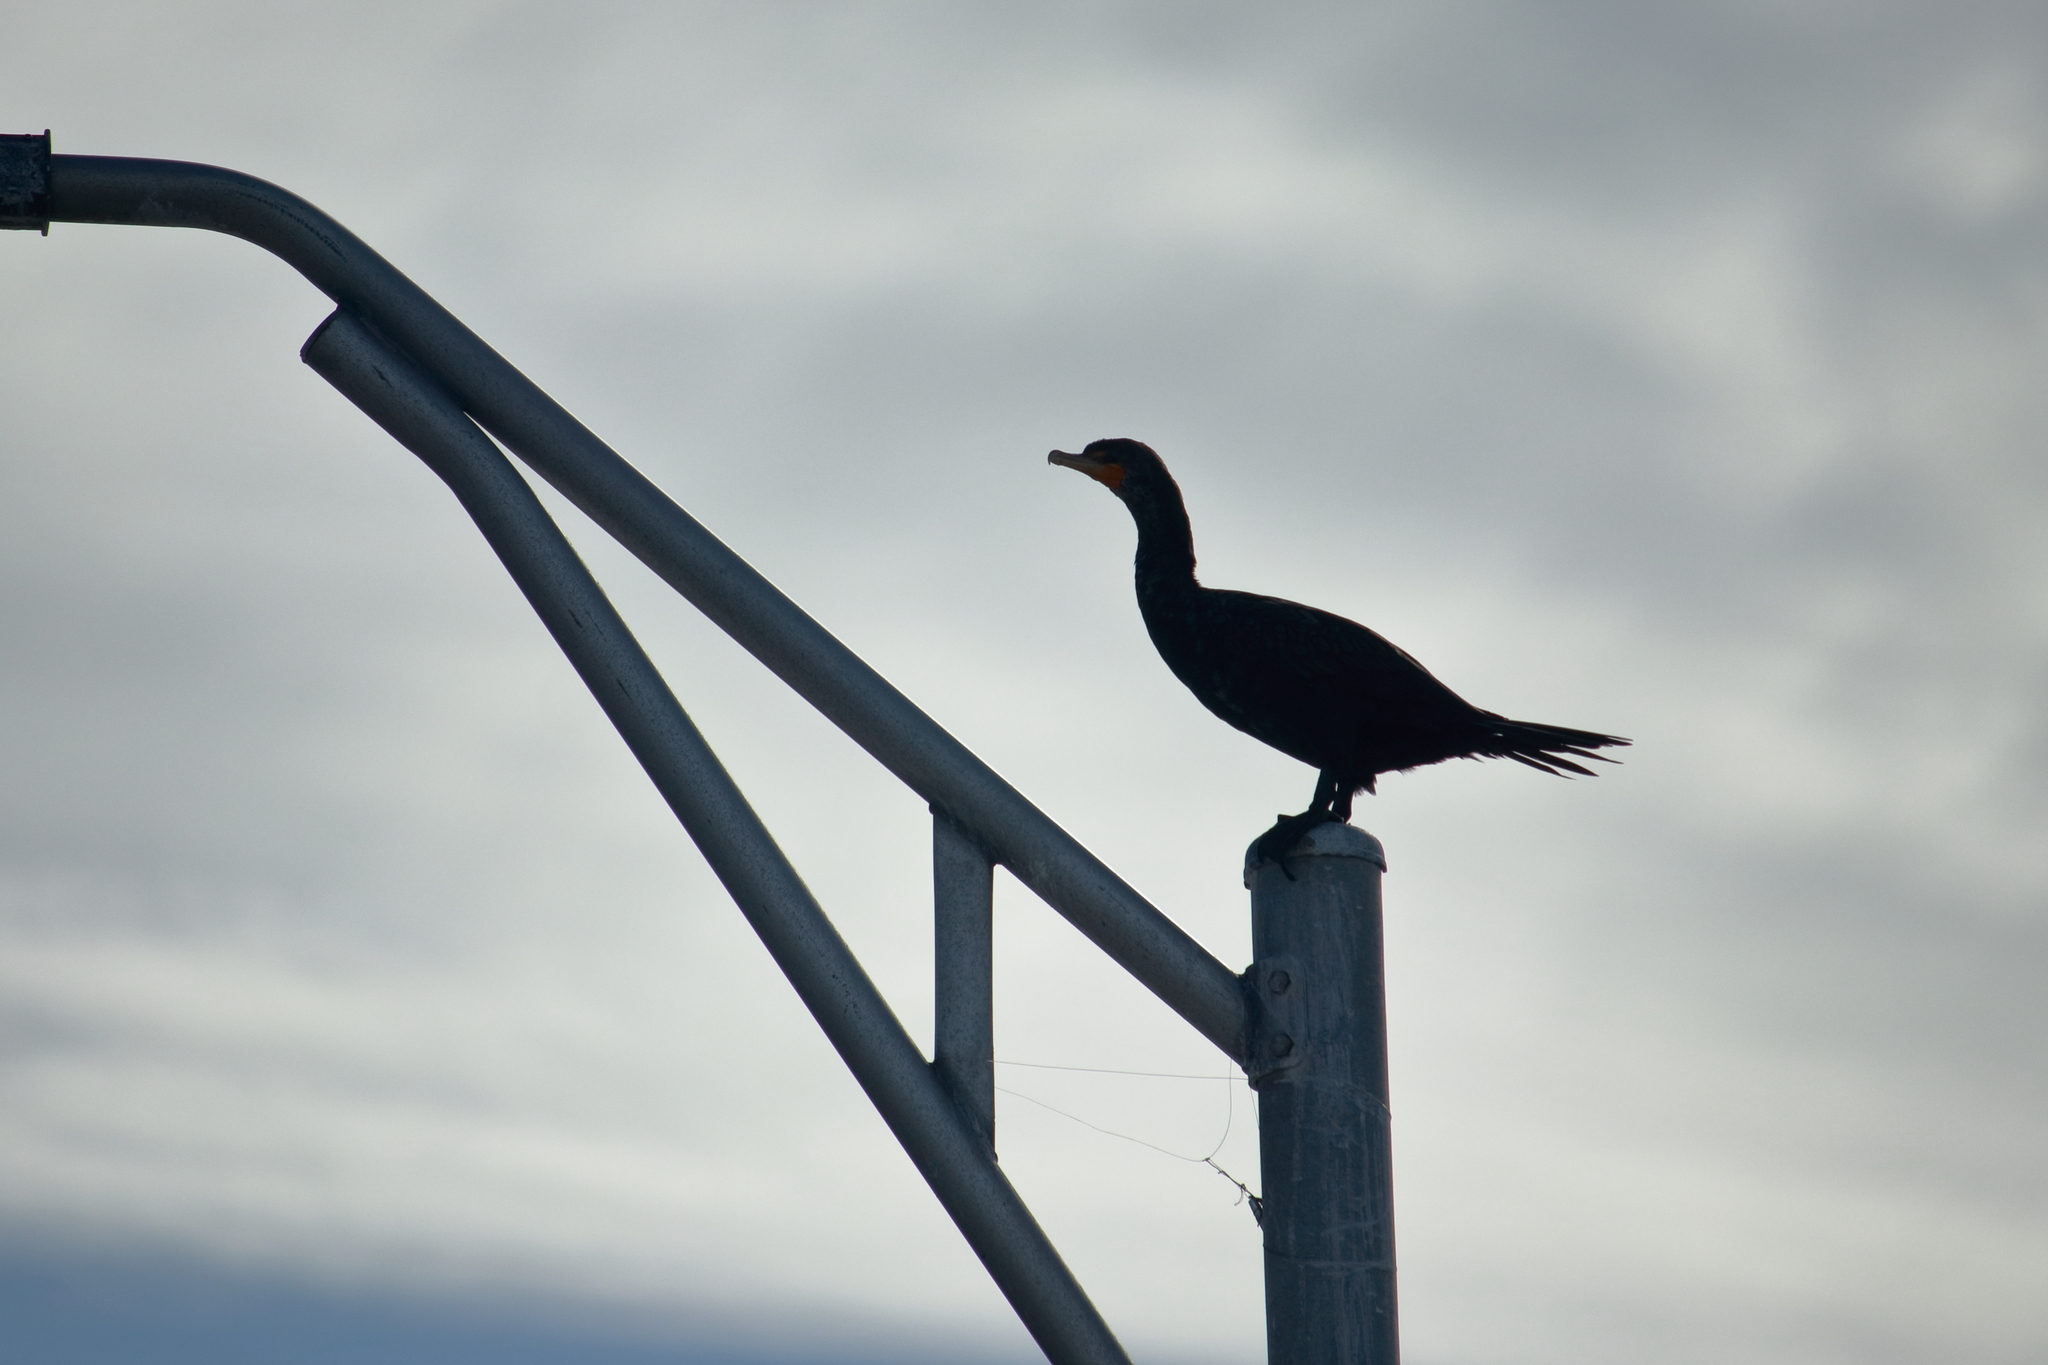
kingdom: Animalia
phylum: Chordata
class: Aves
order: Suliformes
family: Phalacrocoracidae
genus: Phalacrocorax
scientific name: Phalacrocorax auritus
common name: Double-crested cormorant
